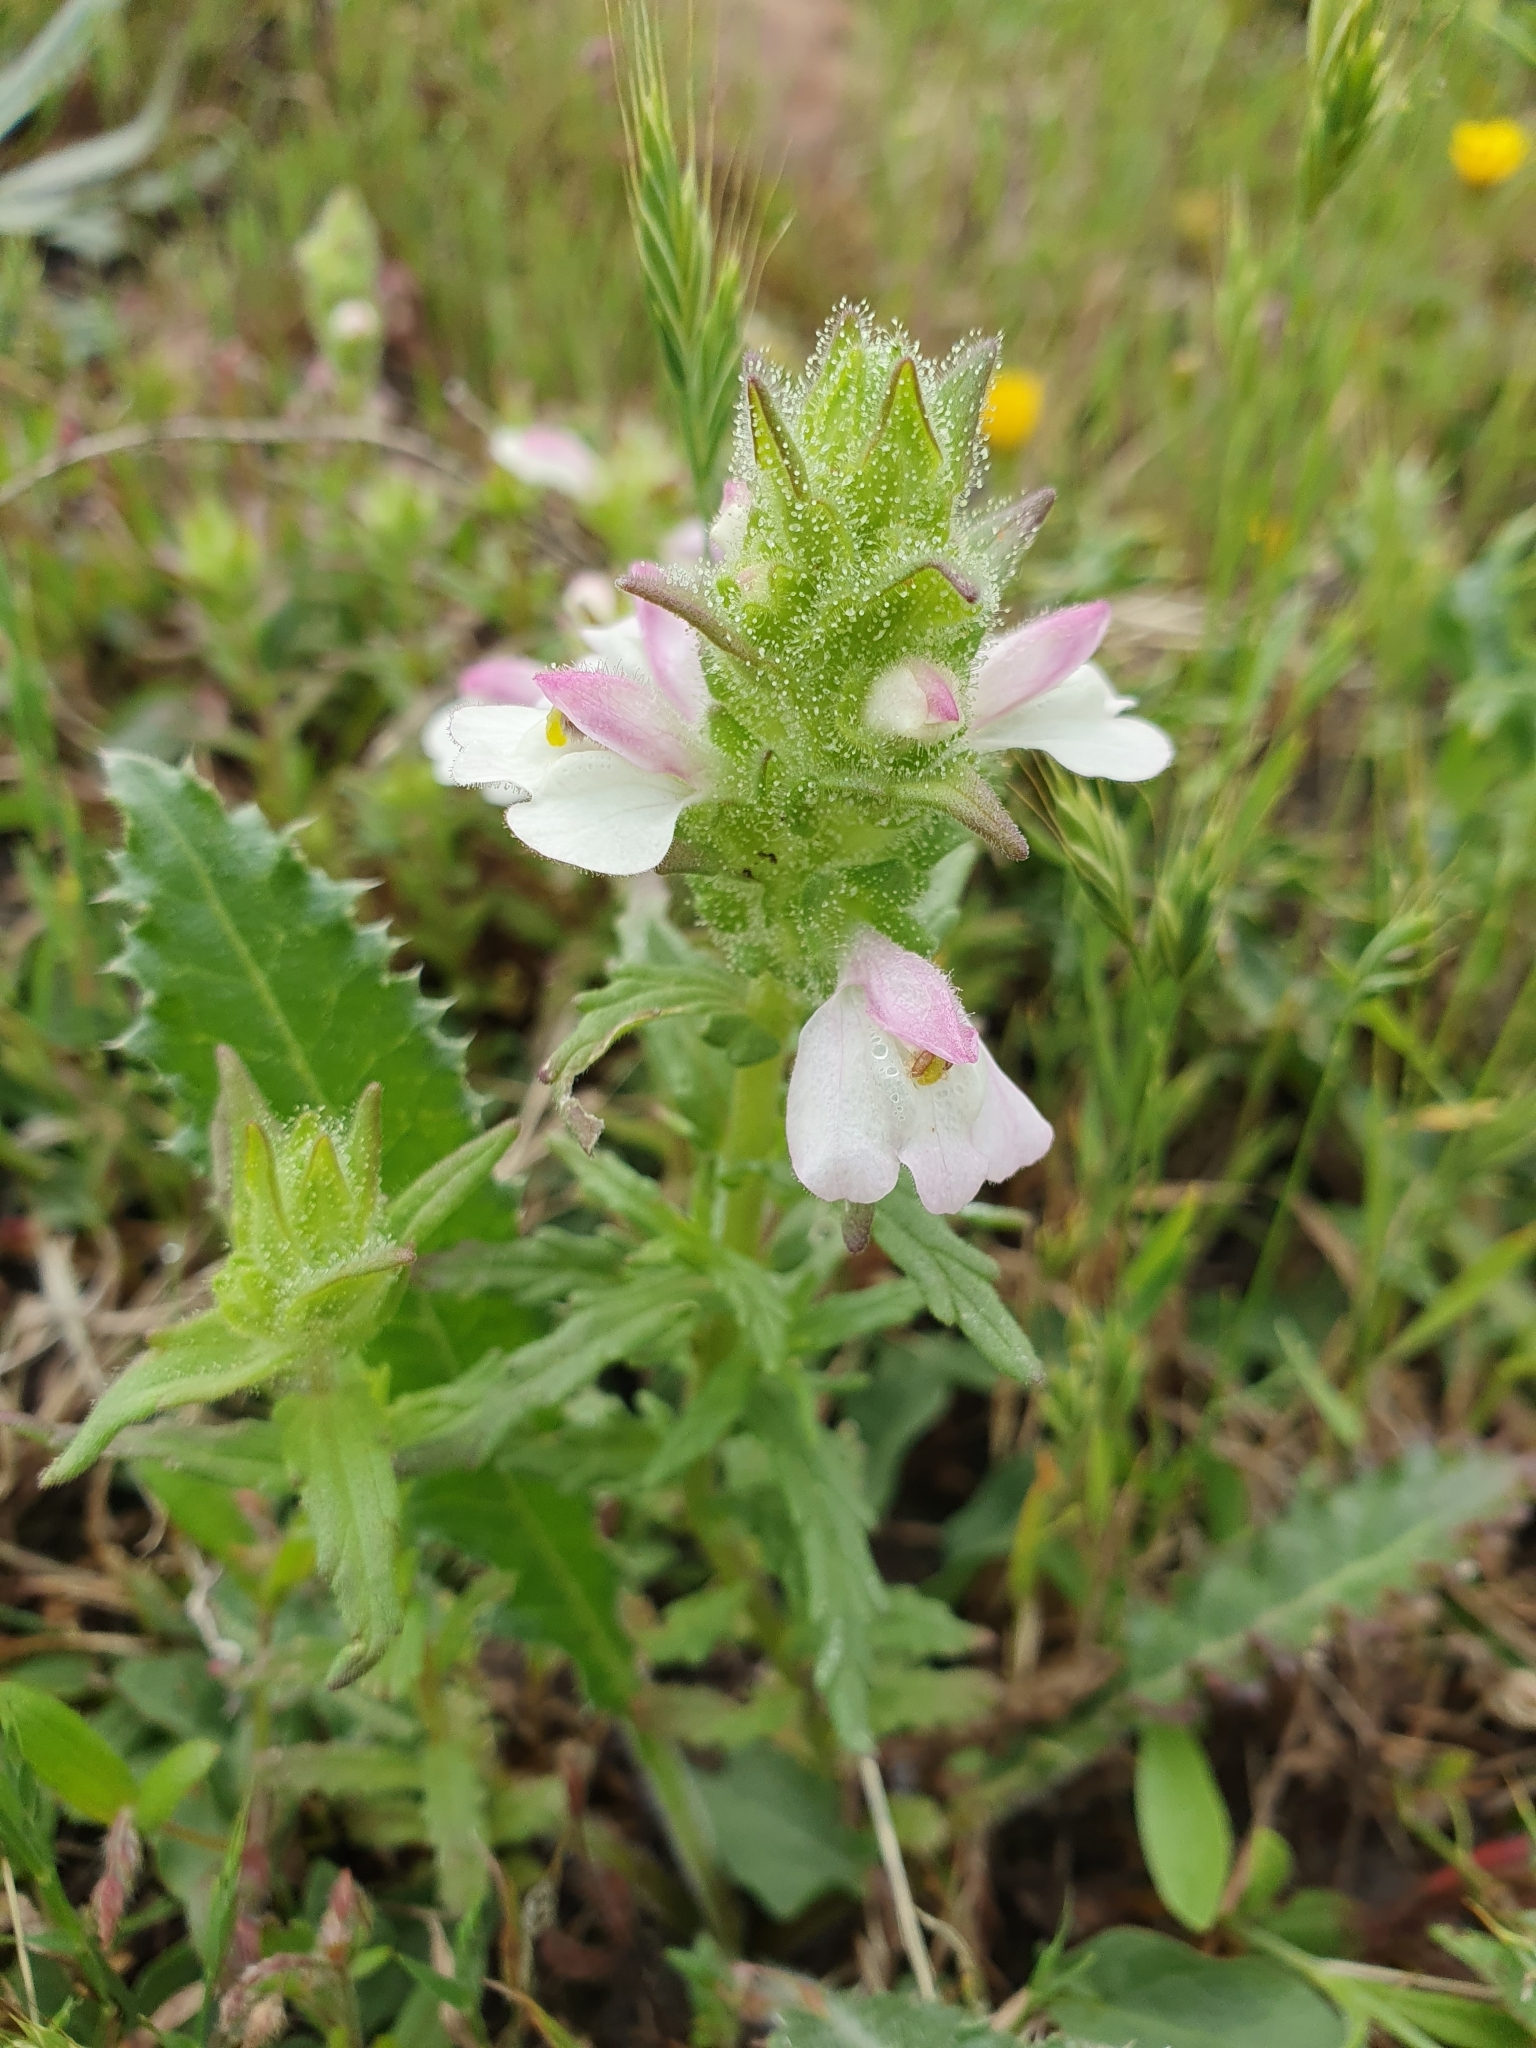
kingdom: Plantae
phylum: Tracheophyta
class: Magnoliopsida
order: Lamiales
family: Orobanchaceae
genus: Bellardia
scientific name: Bellardia trixago
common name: Mediterranean lineseed
